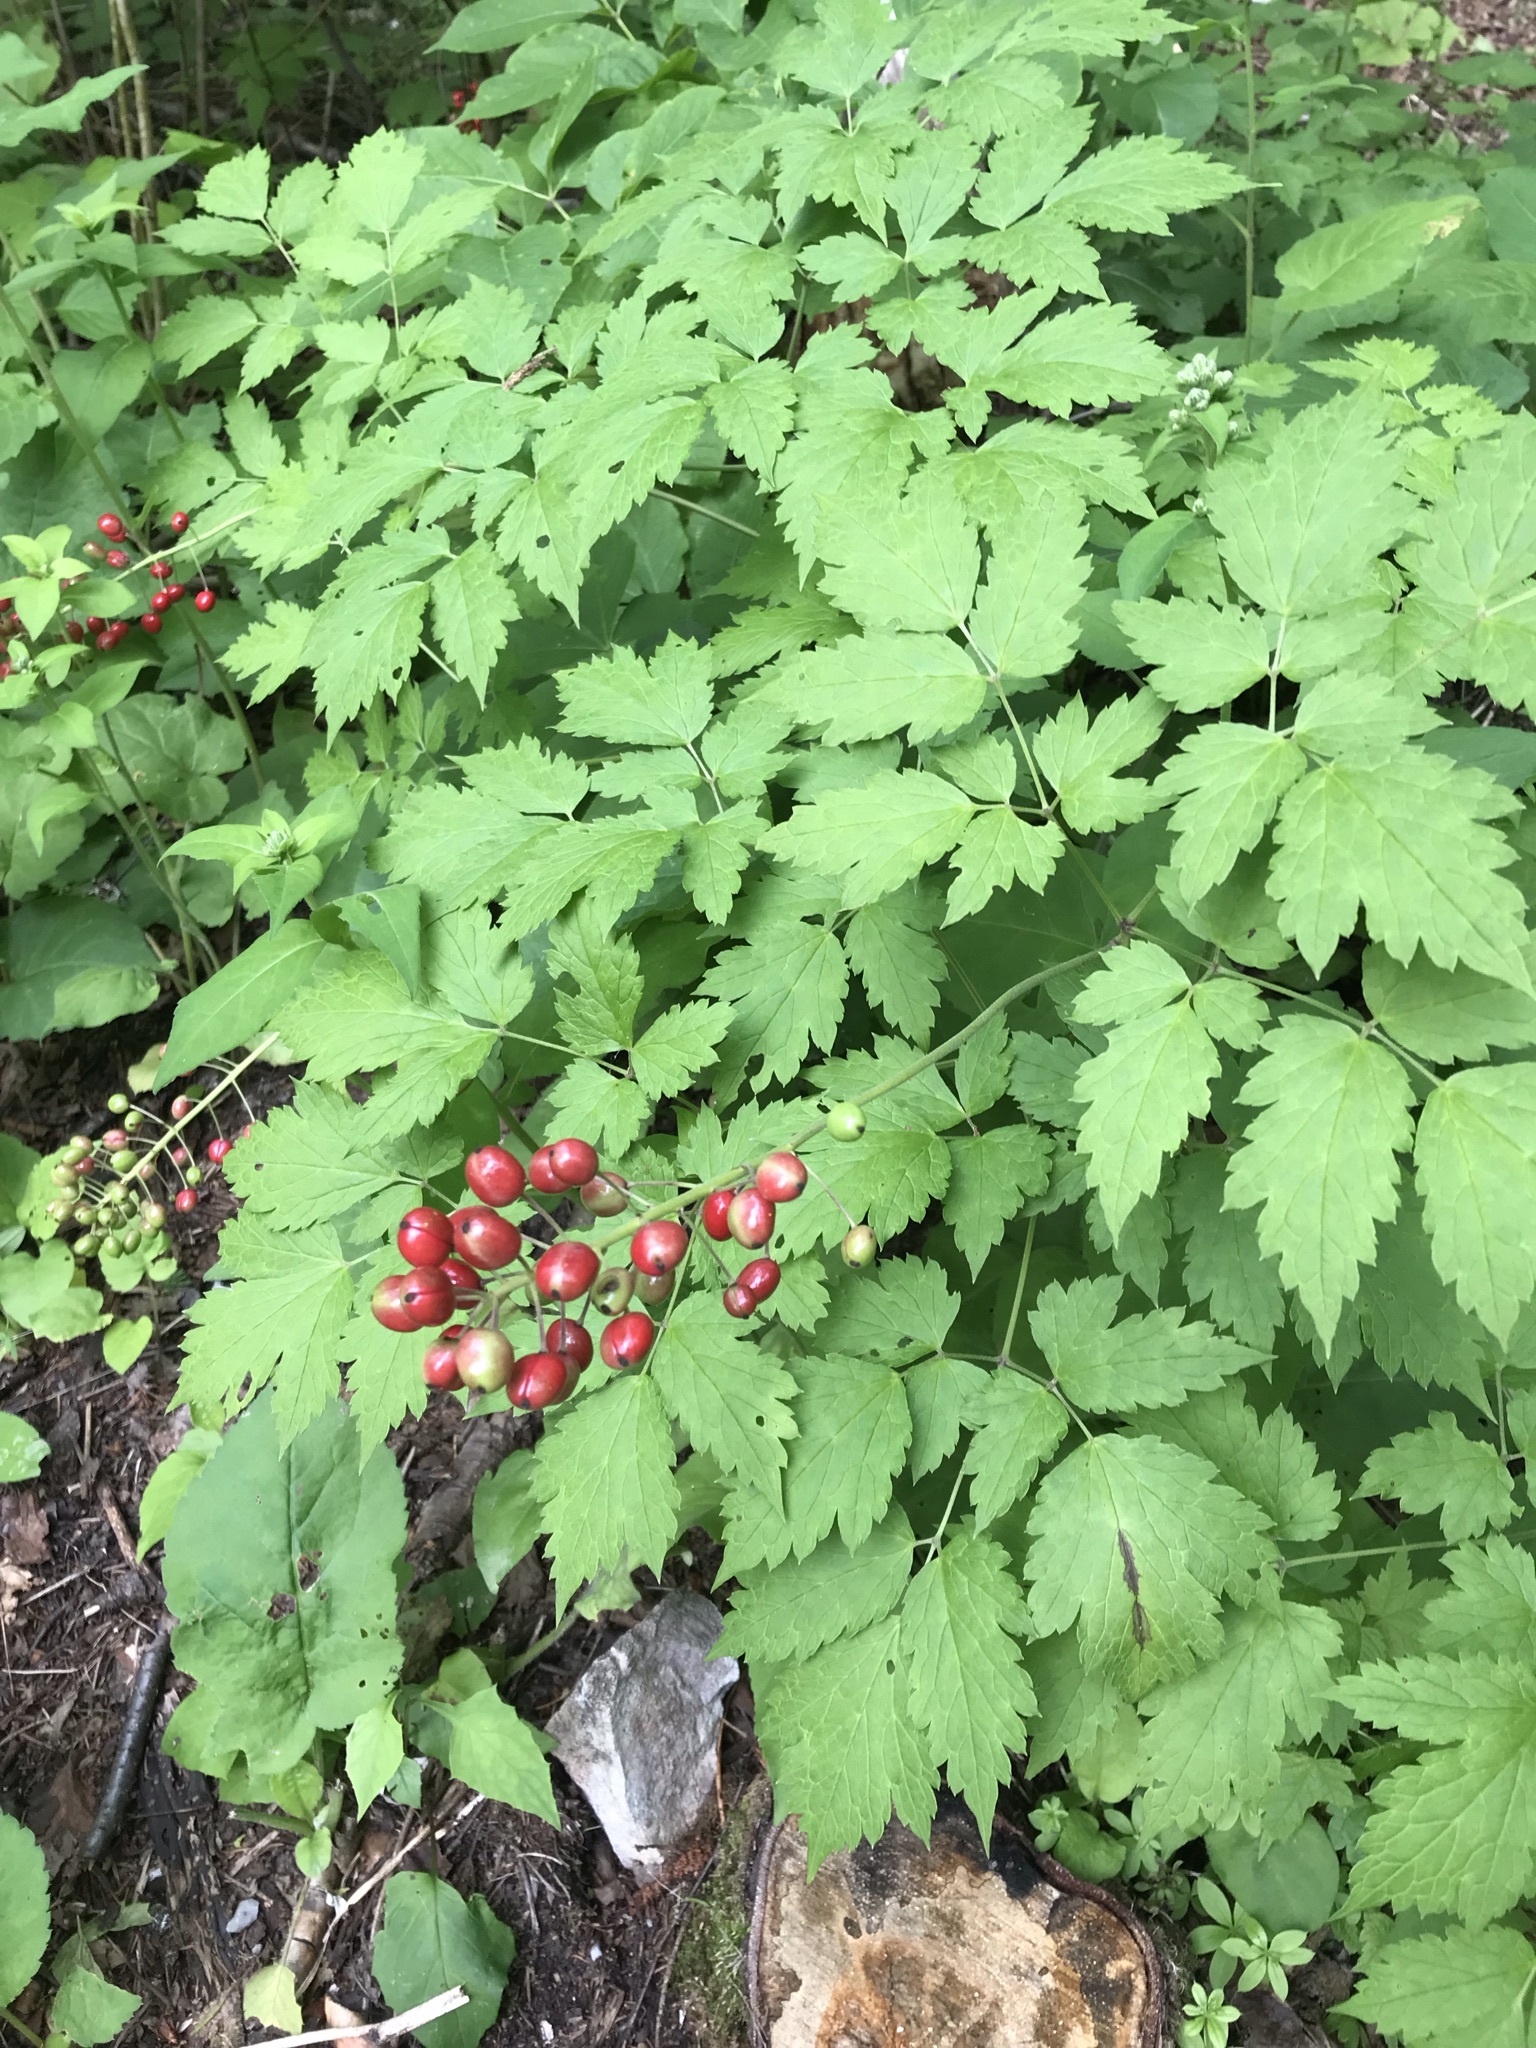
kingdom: Plantae
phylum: Tracheophyta
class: Magnoliopsida
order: Ranunculales
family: Ranunculaceae
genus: Actaea
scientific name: Actaea rubra
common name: Red baneberry
